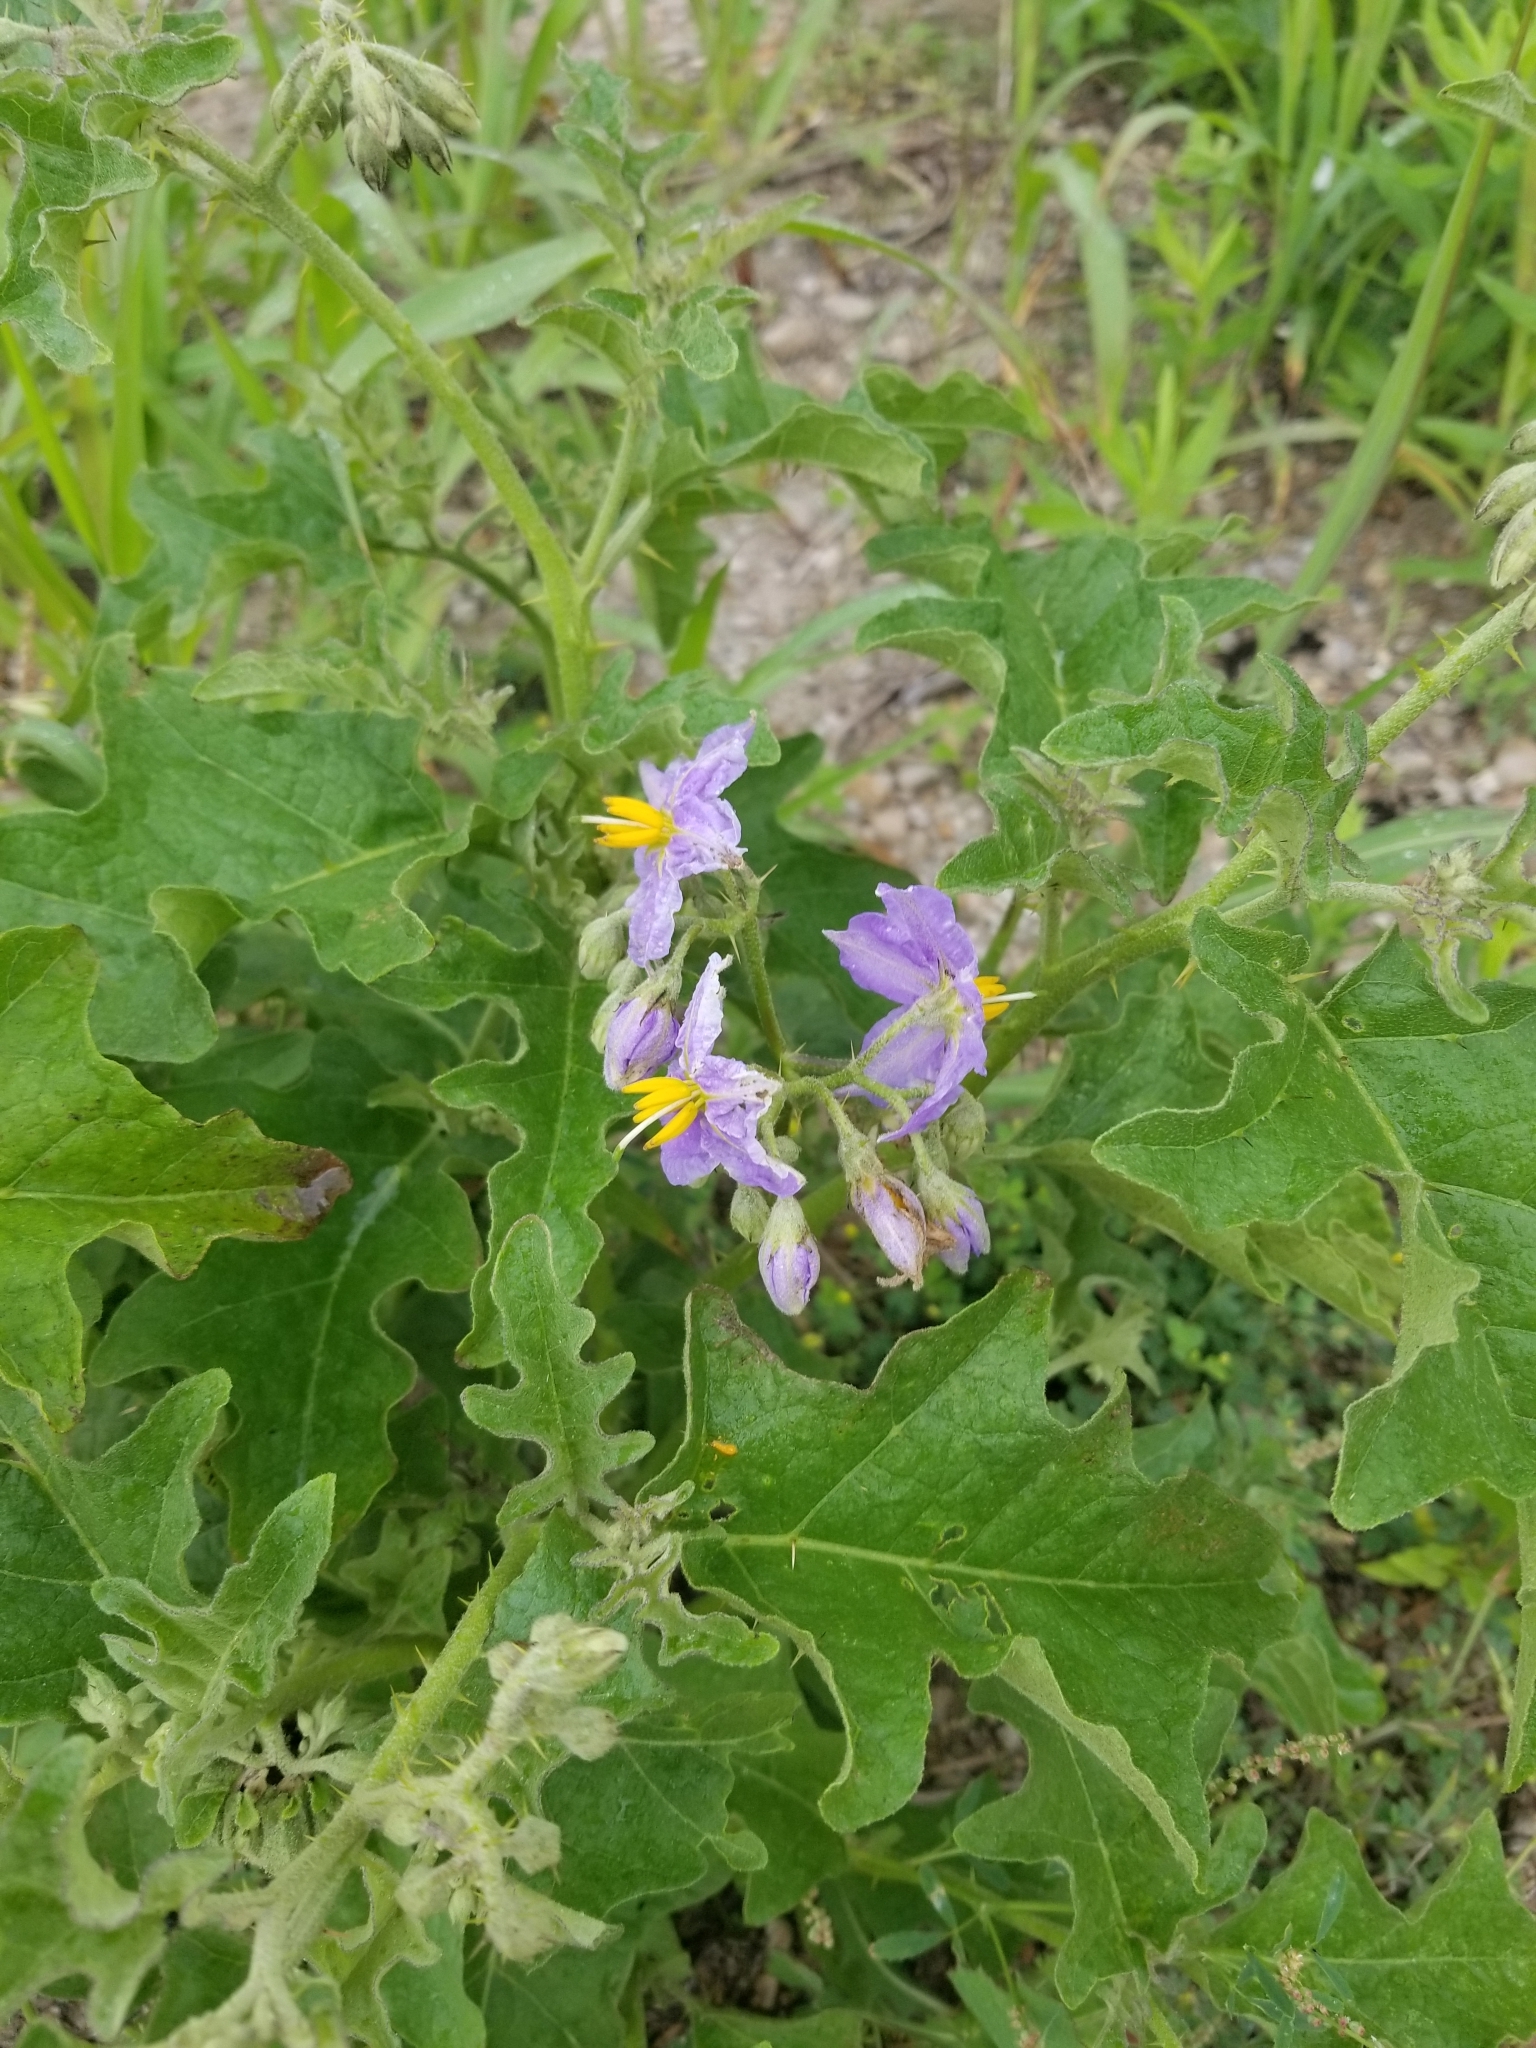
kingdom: Plantae
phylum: Tracheophyta
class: Magnoliopsida
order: Solanales
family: Solanaceae
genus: Solanum
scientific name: Solanum dimidiatum
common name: Carolina horse-nettle
